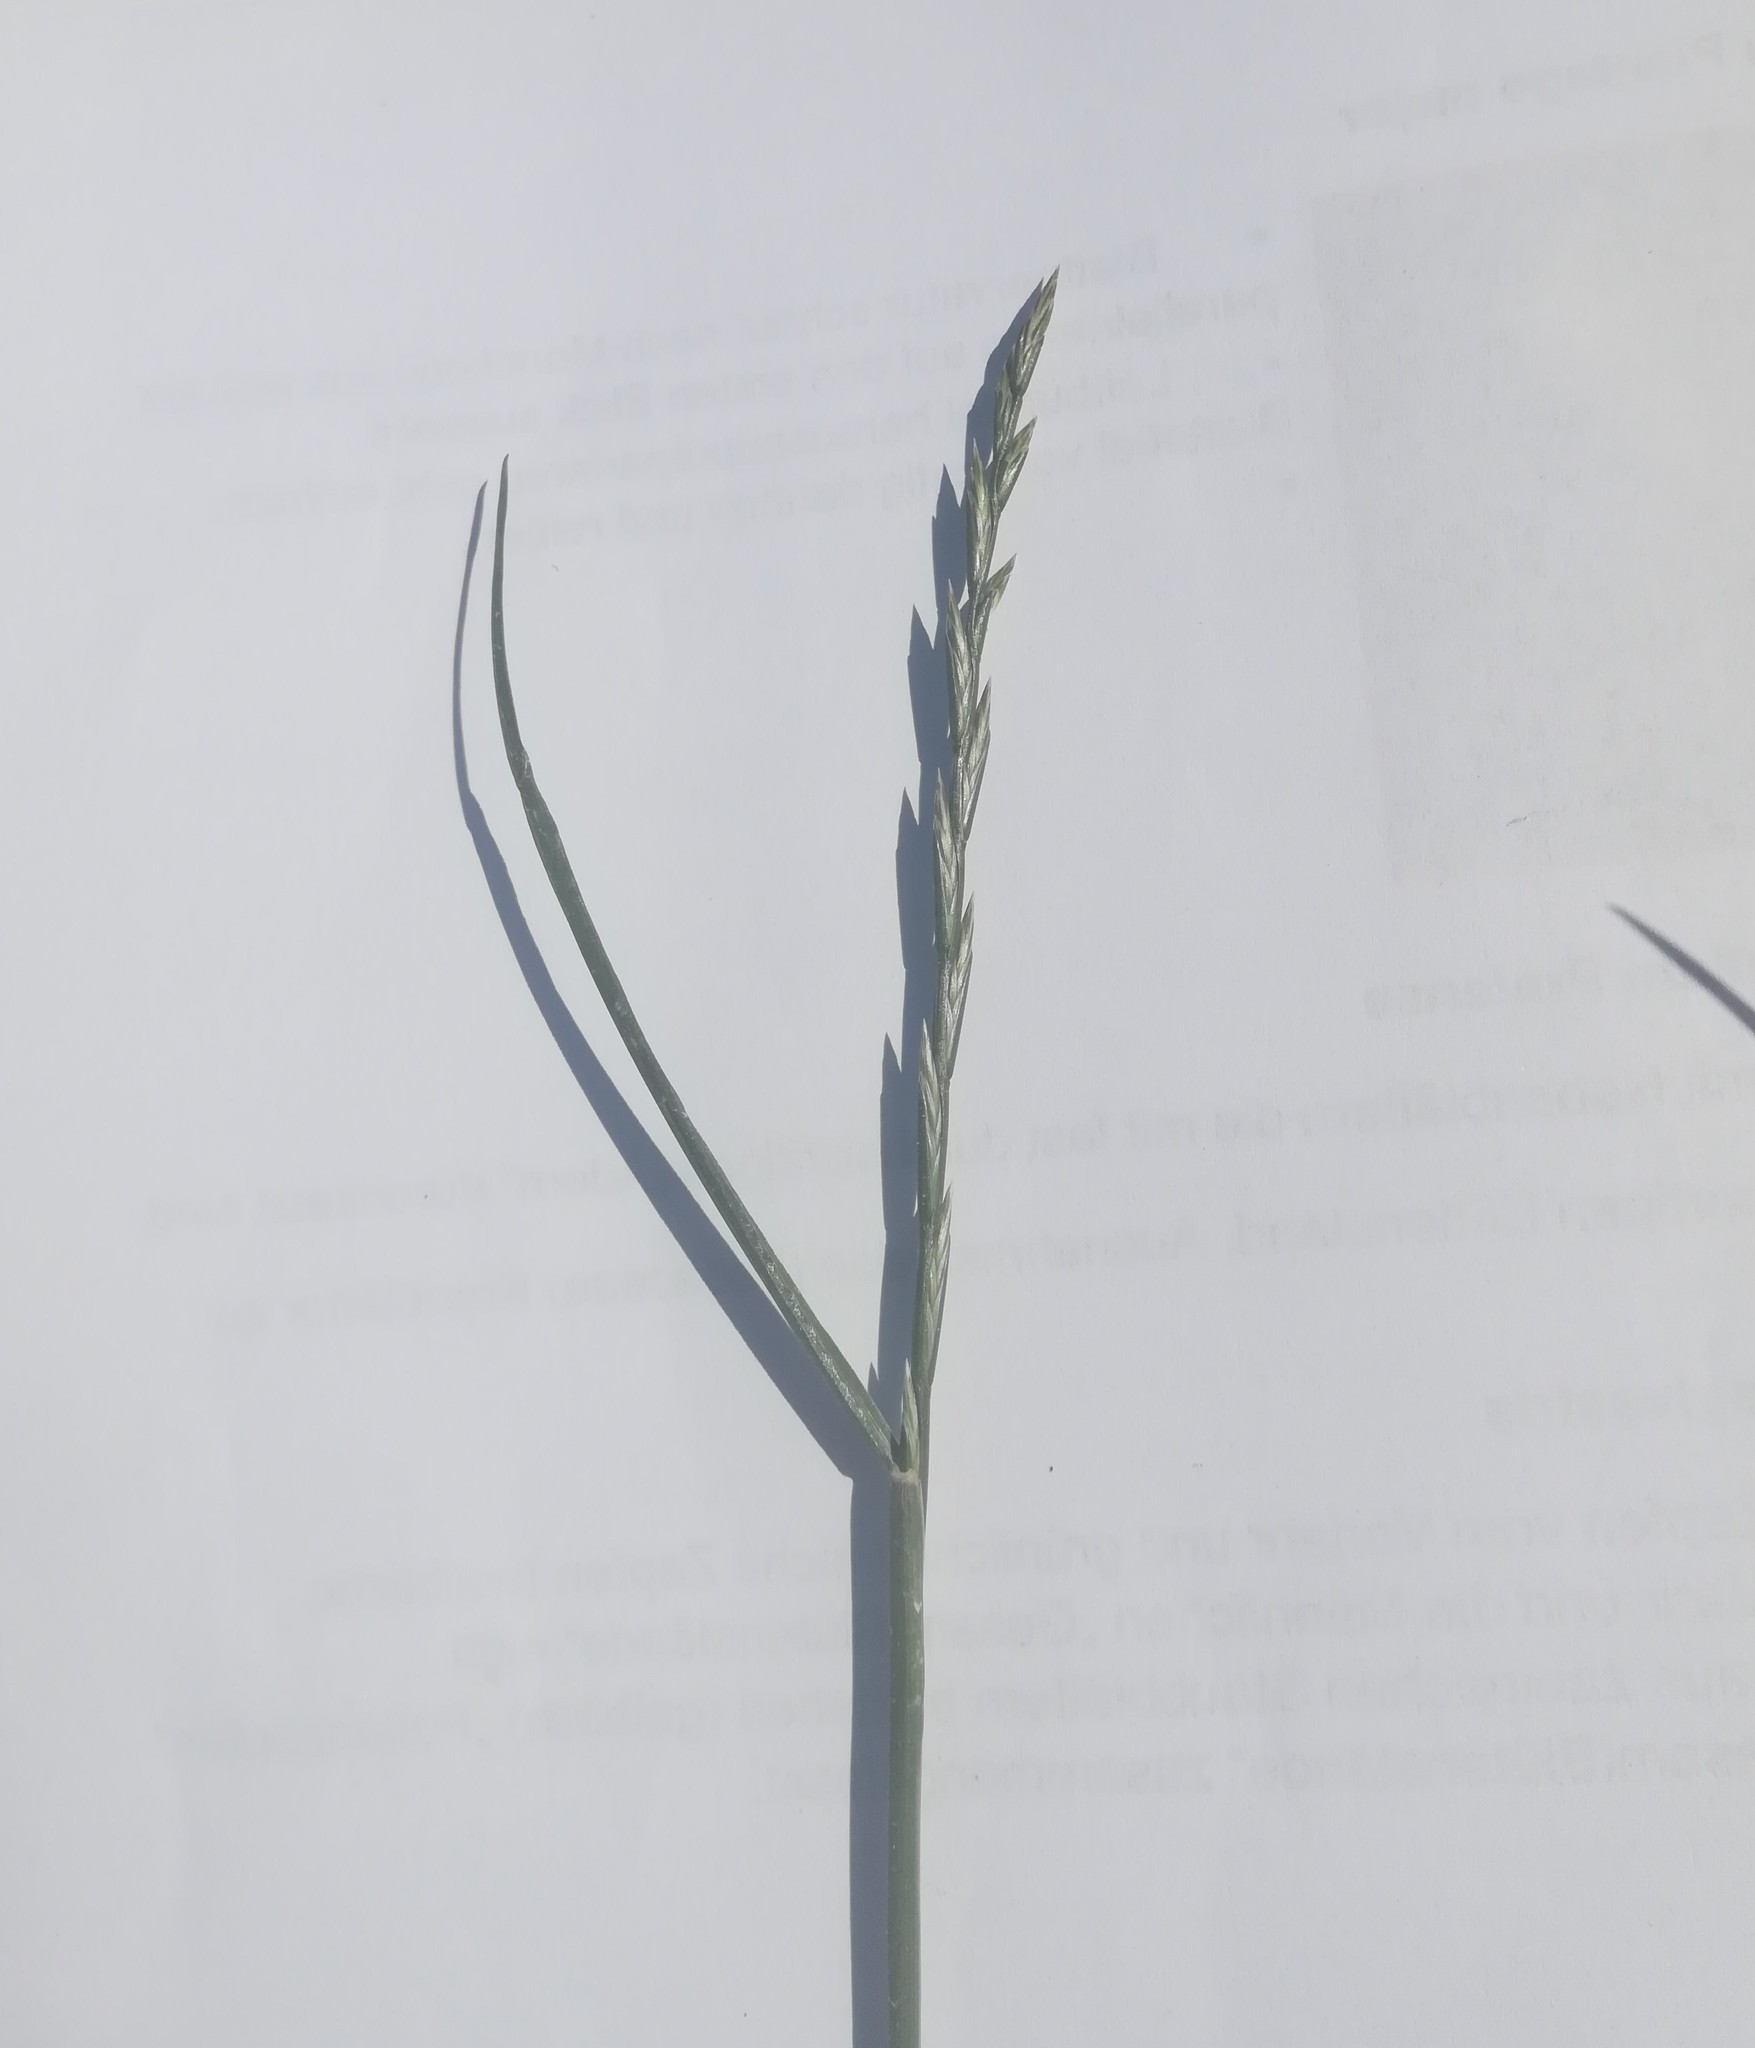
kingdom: Plantae
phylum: Tracheophyta
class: Liliopsida
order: Poales
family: Poaceae
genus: Lolium
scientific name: Lolium perenne
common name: Perennial ryegrass
